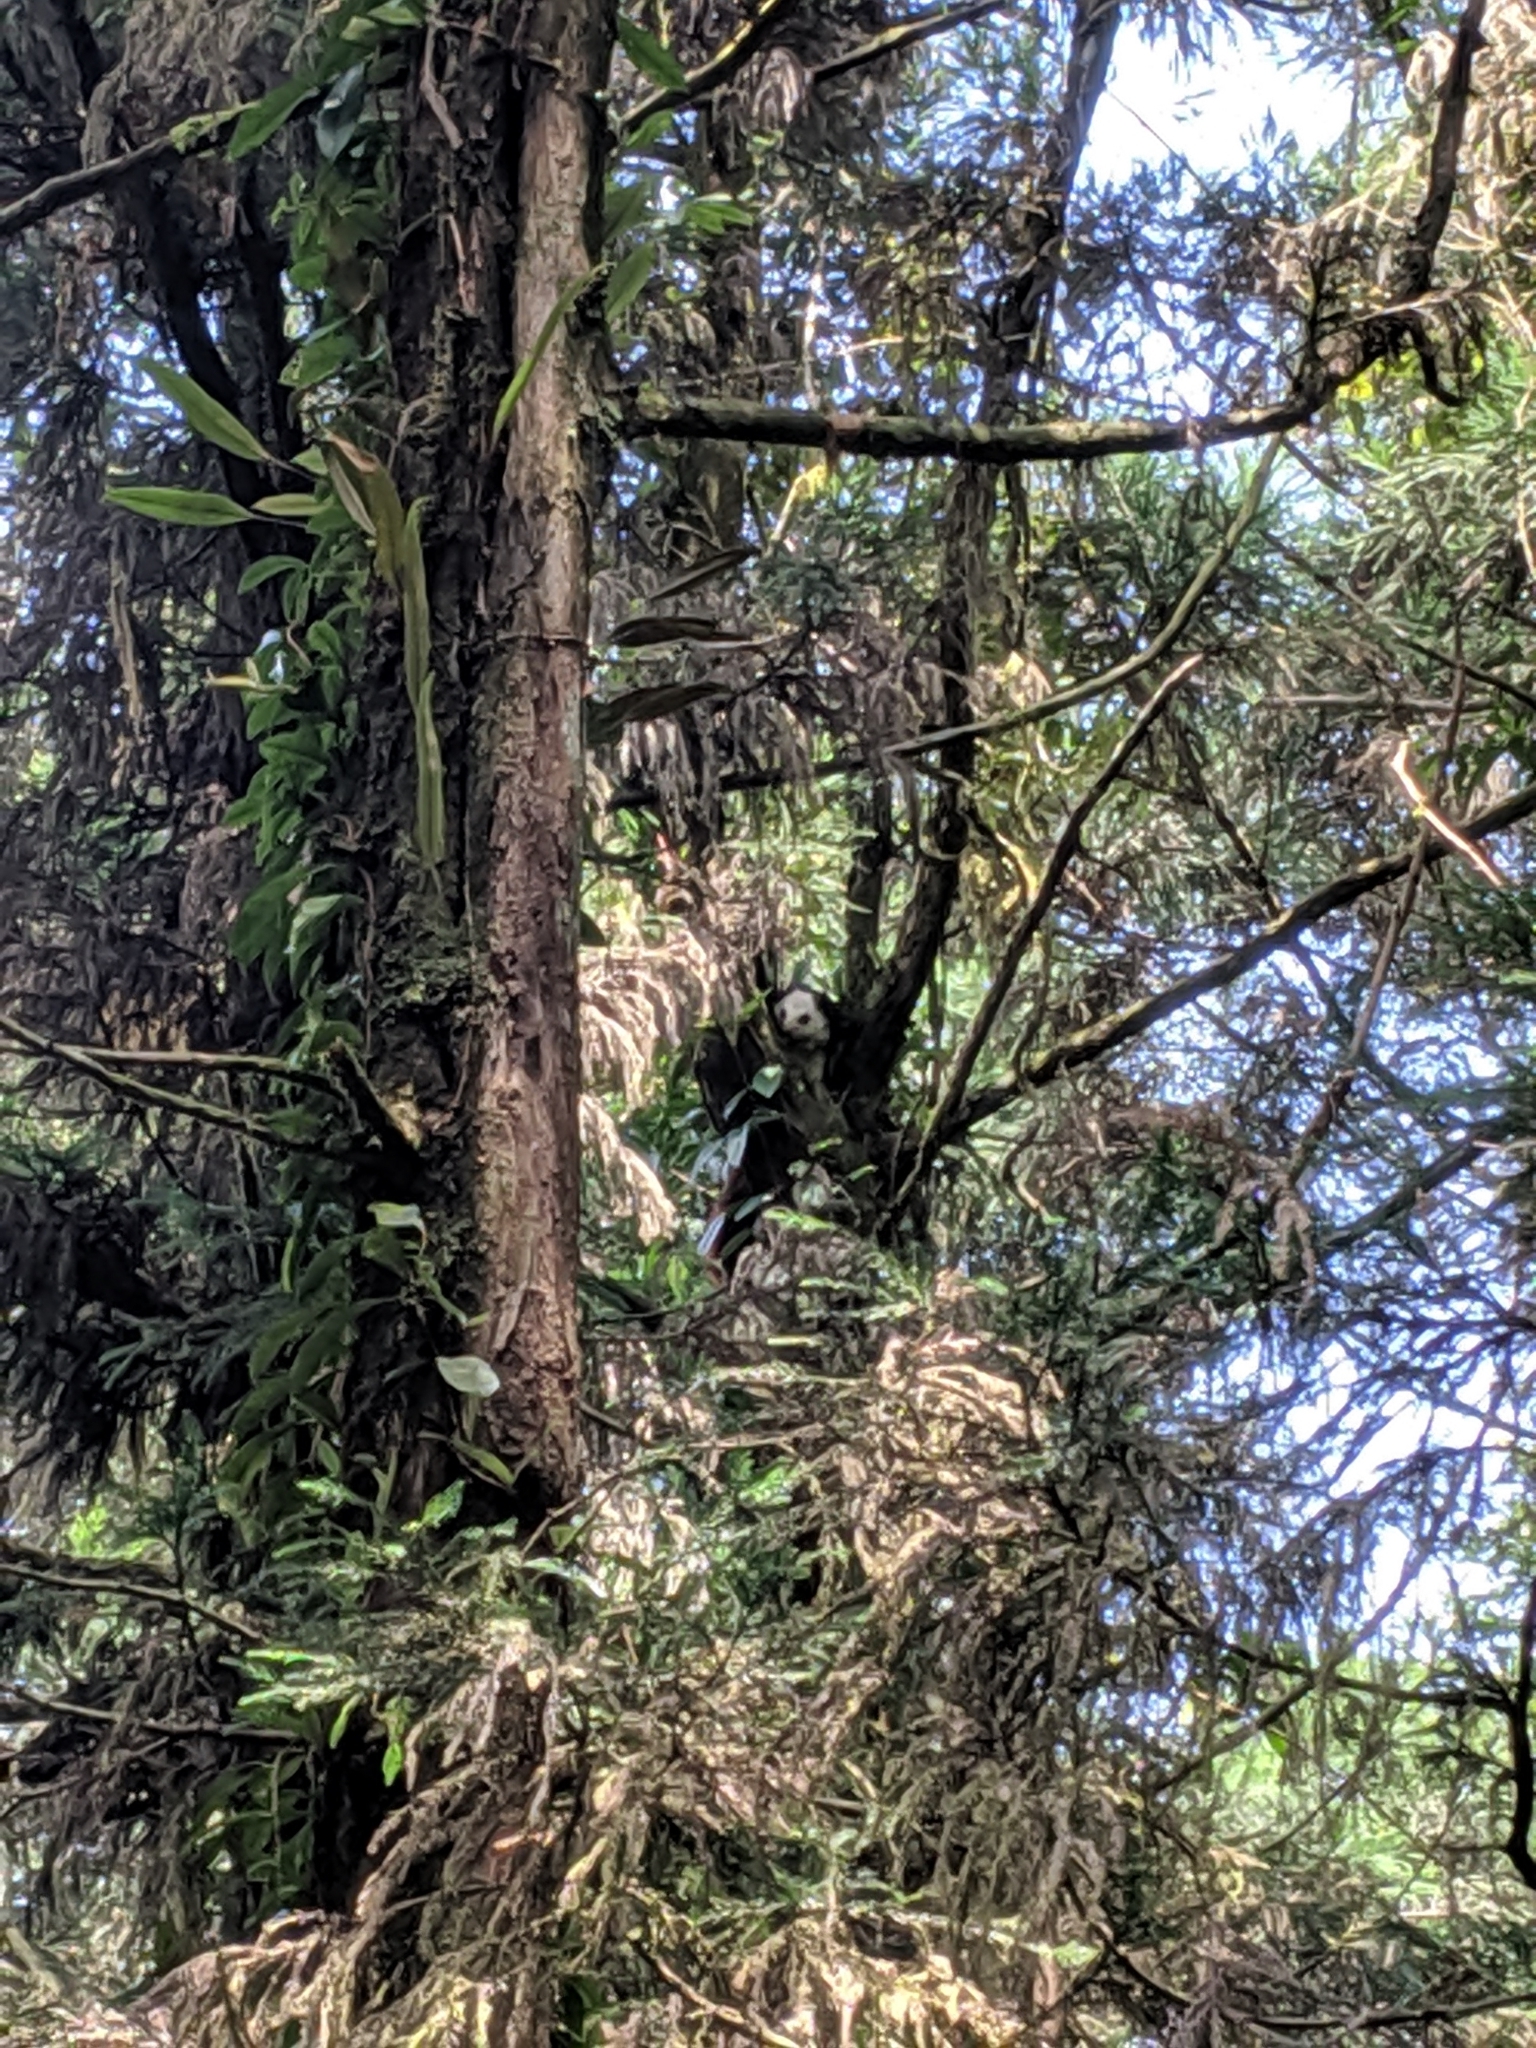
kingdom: Animalia
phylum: Chordata
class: Mammalia
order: Rodentia
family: Sciuridae
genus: Petaurista
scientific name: Petaurista lena
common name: Taiwan giant flying squirrel
